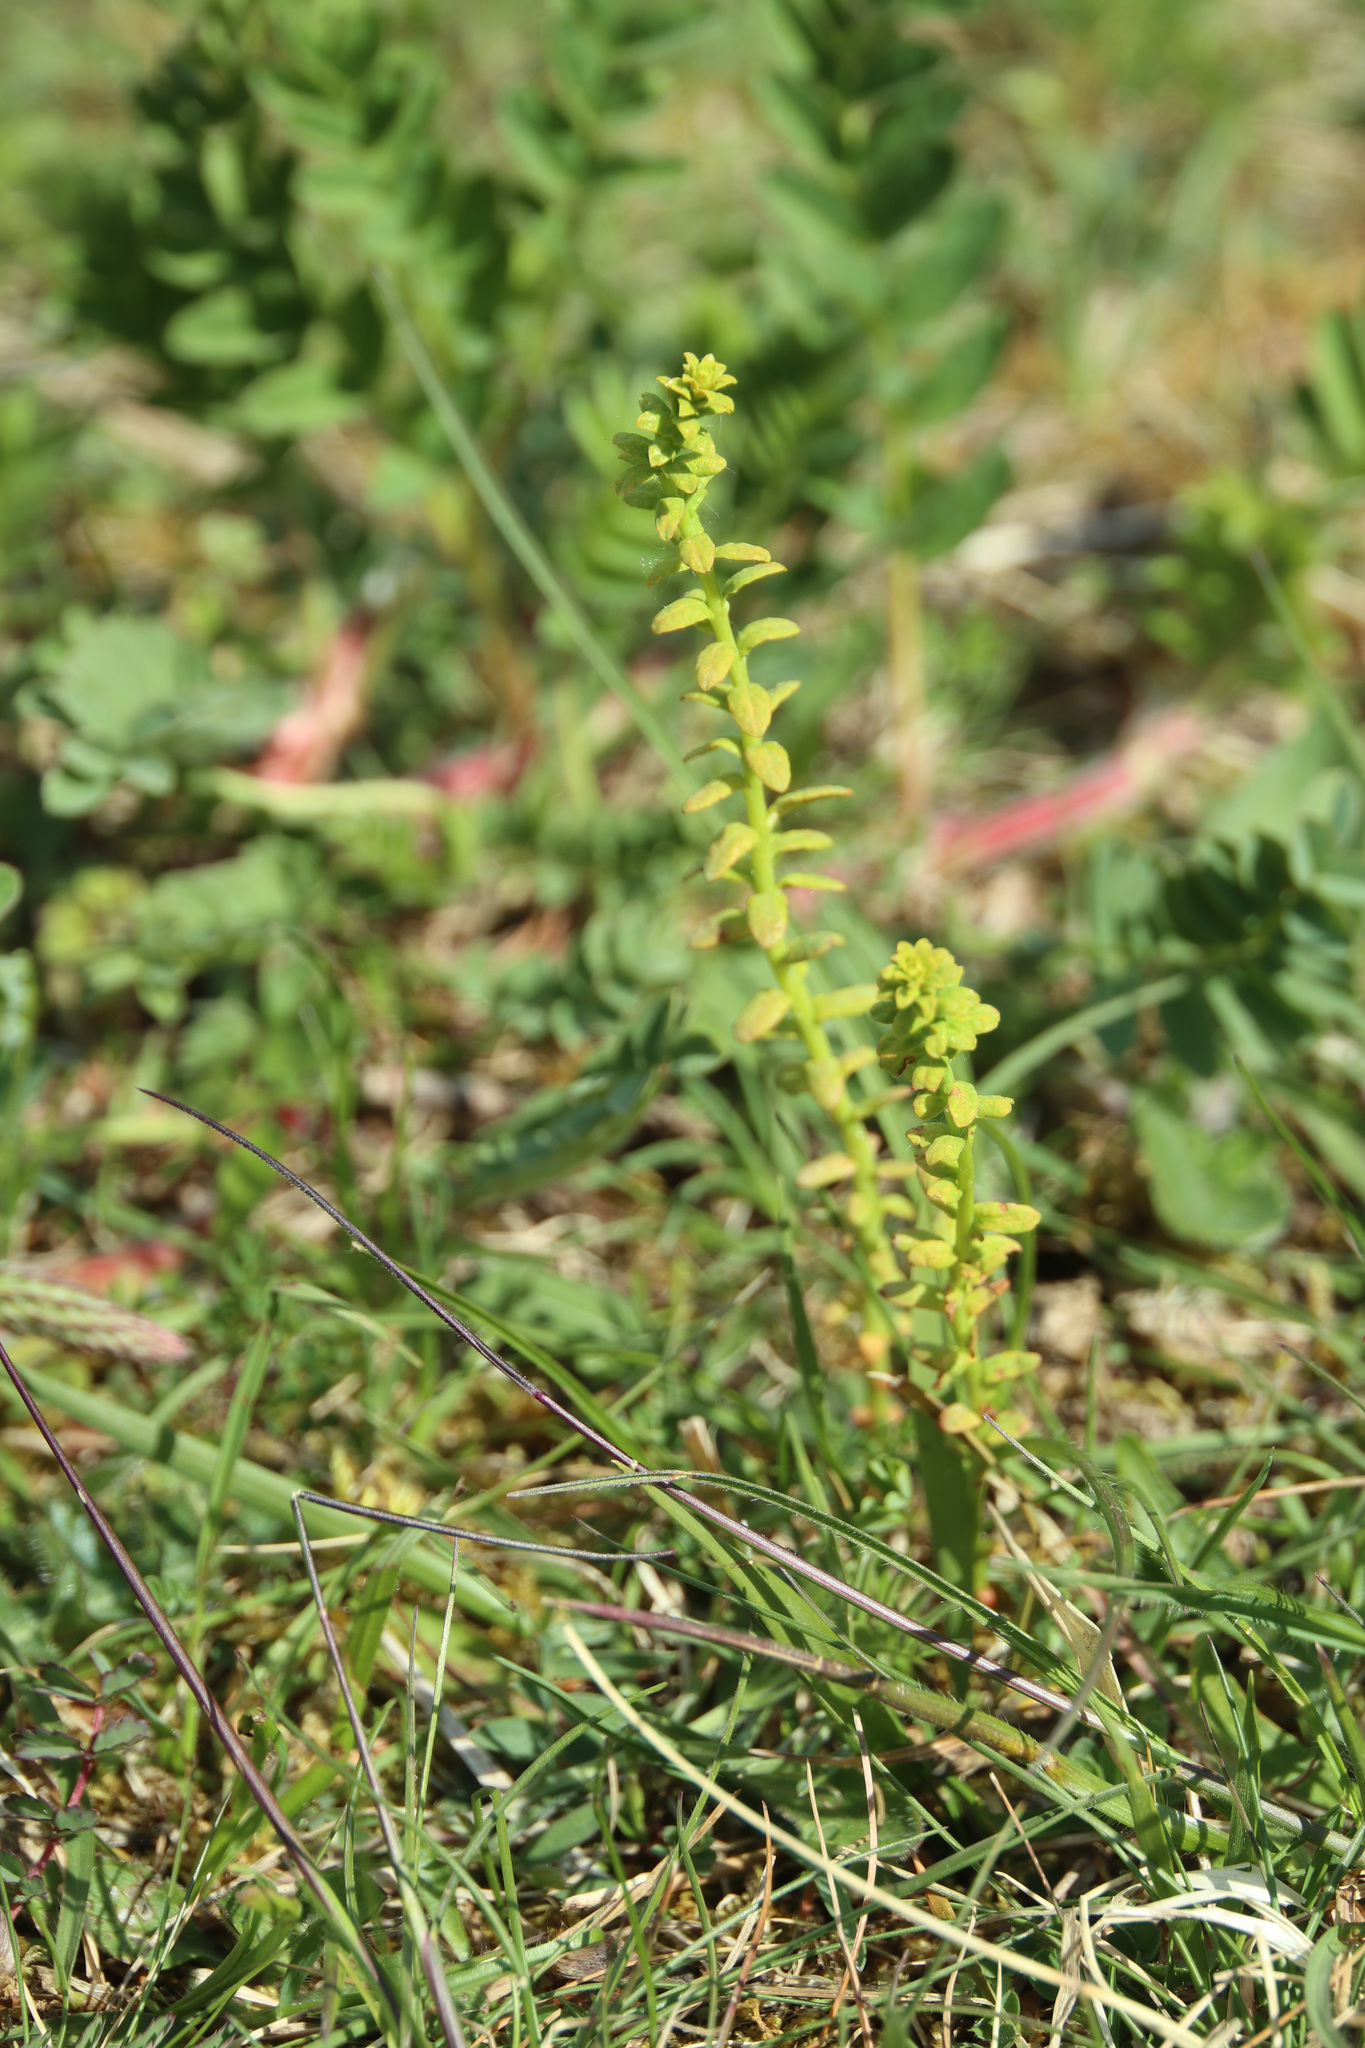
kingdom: Plantae
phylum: Tracheophyta
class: Magnoliopsida
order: Malpighiales
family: Euphorbiaceae
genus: Euphorbia
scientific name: Euphorbia cyparissias
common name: Cypress spurge
